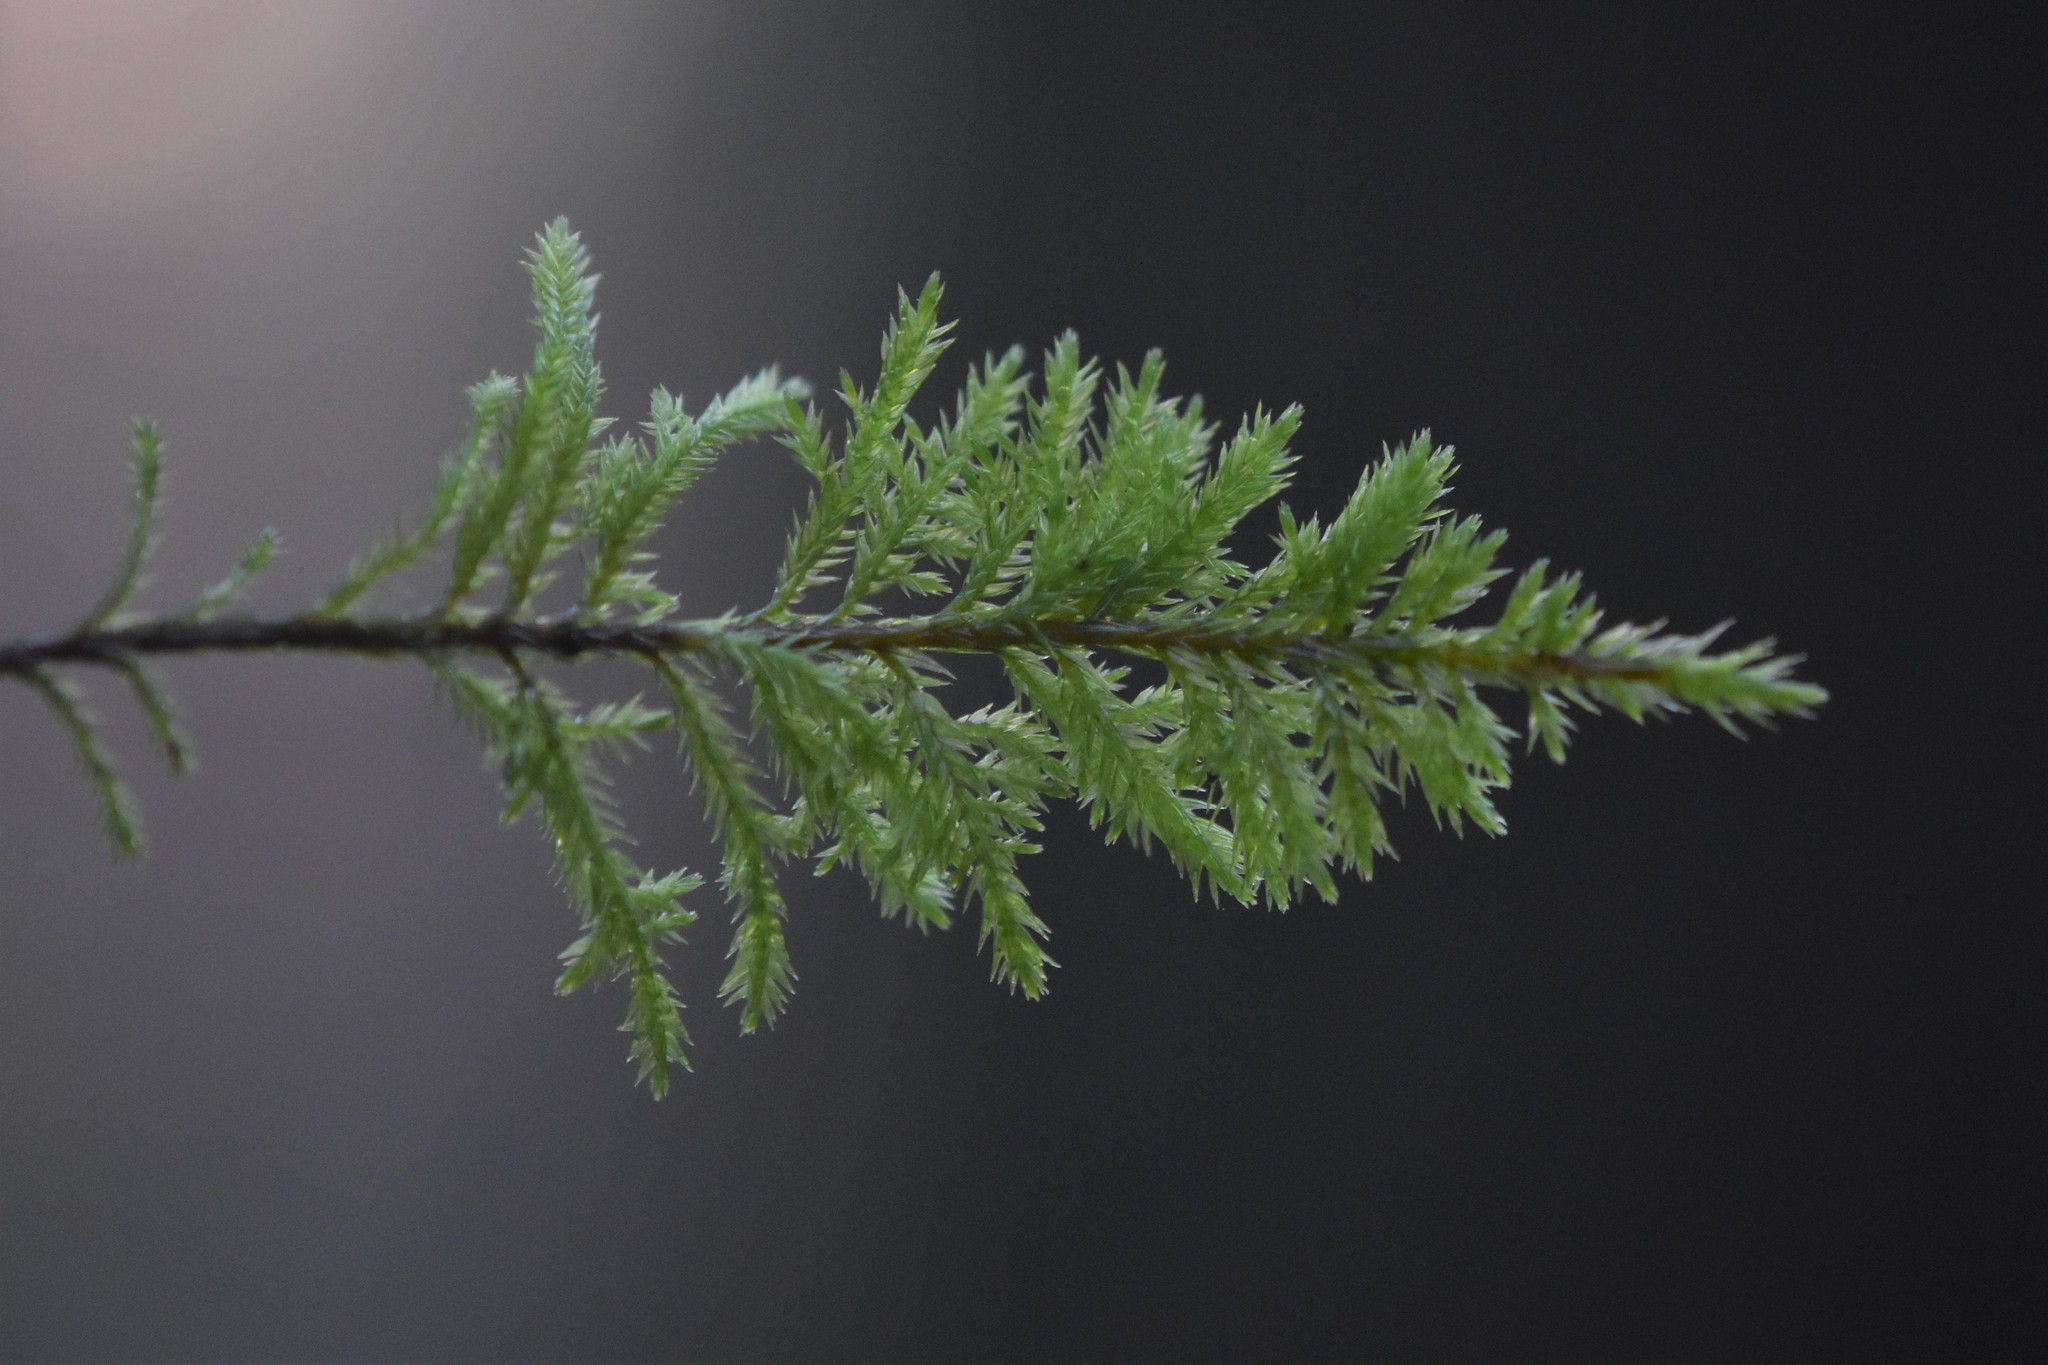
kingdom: Plantae
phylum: Bryophyta
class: Bryopsida
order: Hypnales
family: Cryphaeaceae
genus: Dendroalsia
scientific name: Dendroalsia abietina
